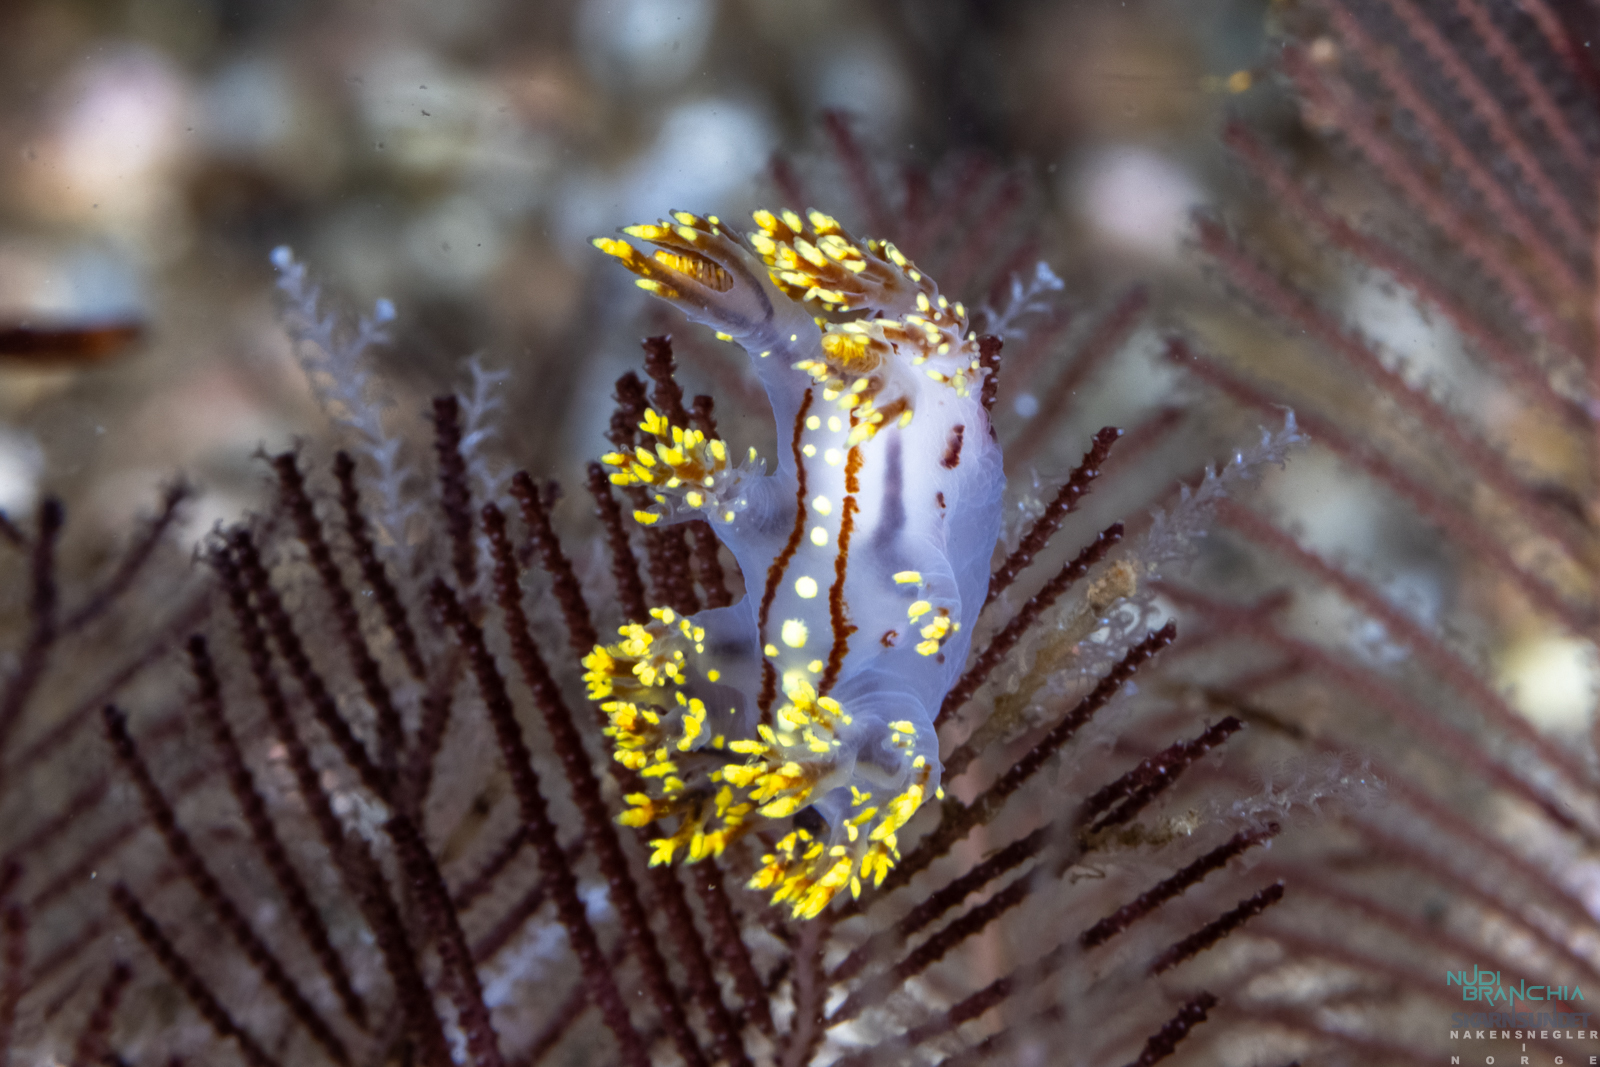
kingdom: Animalia
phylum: Mollusca
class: Gastropoda
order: Nudibranchia
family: Dendronotidae
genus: Dendronotus
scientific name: Dendronotus yrjargul
